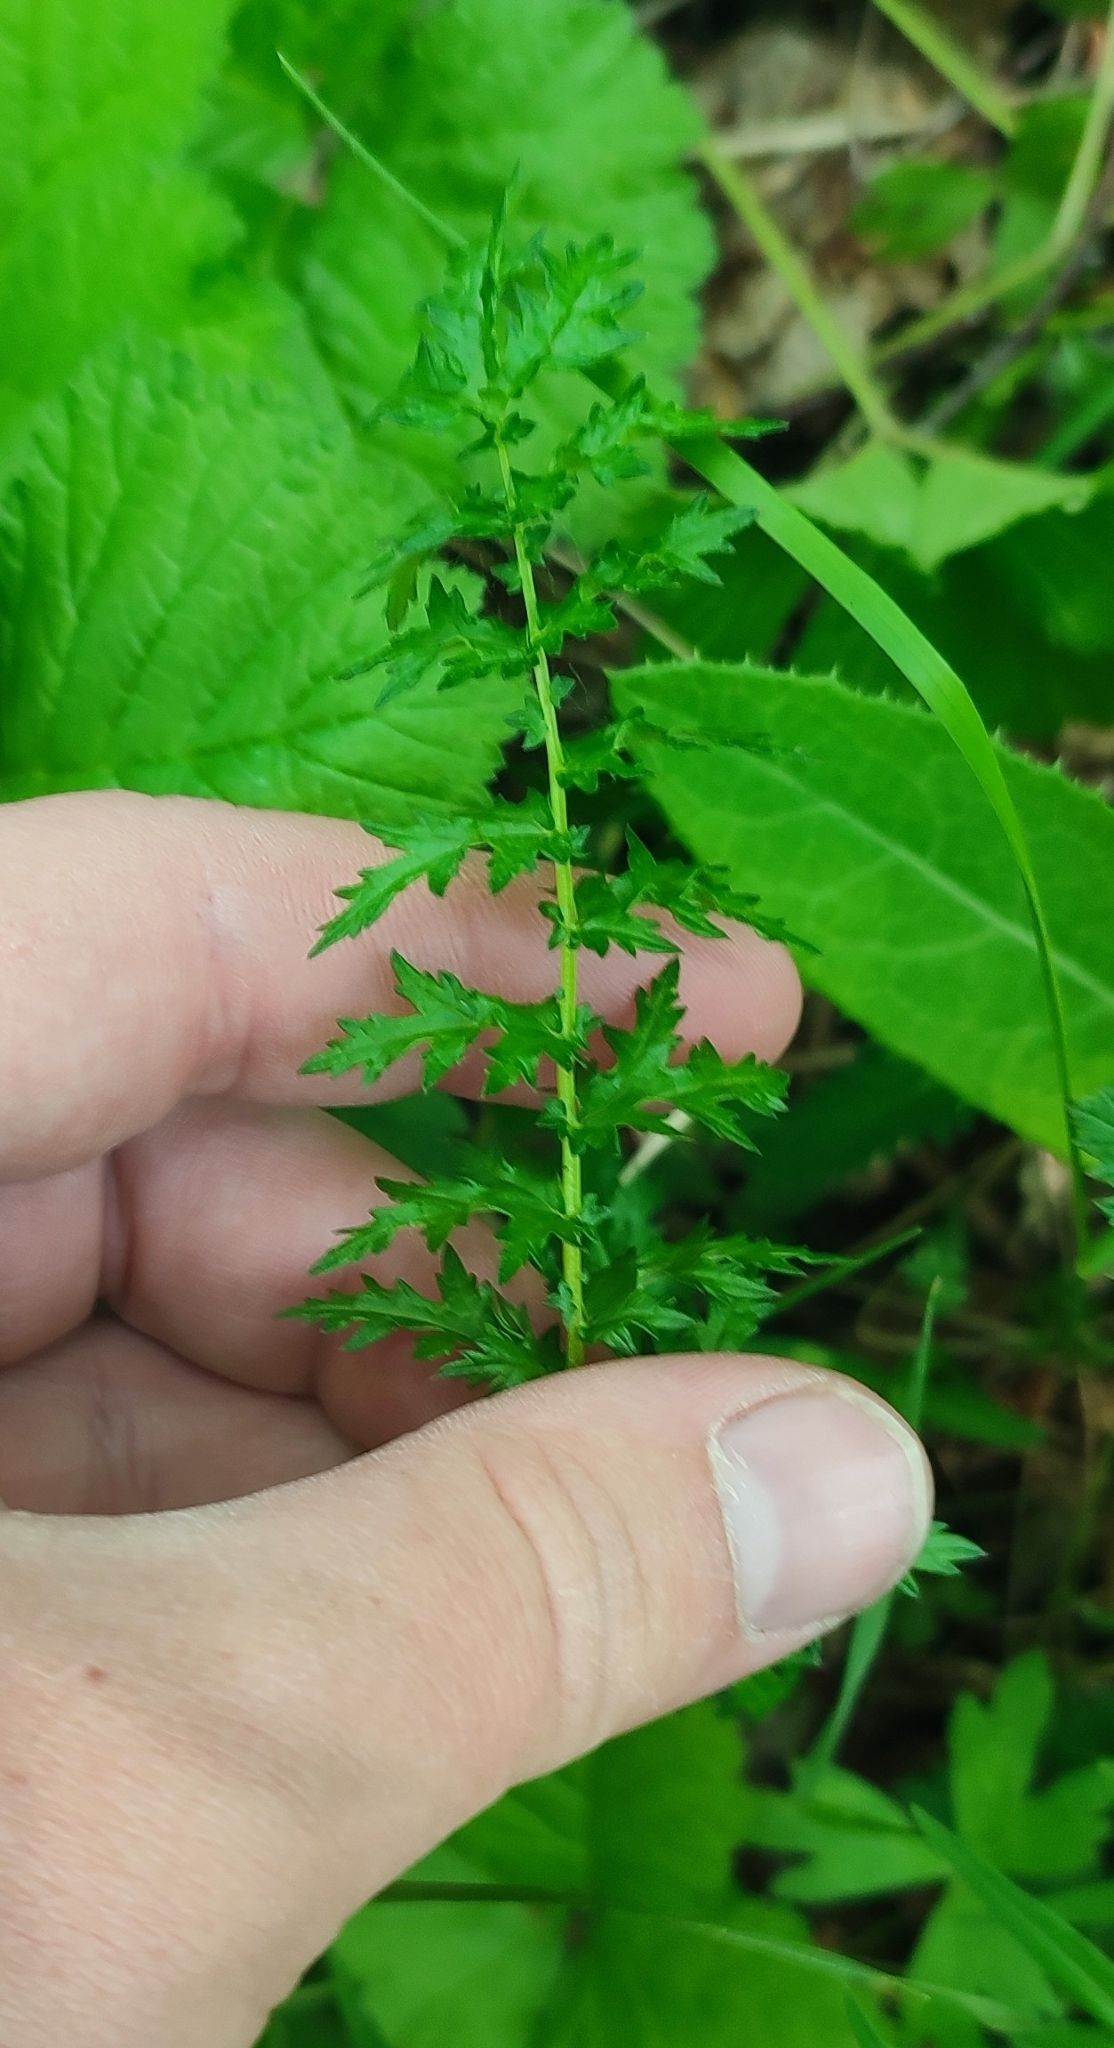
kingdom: Plantae
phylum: Tracheophyta
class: Magnoliopsida
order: Rosales
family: Rosaceae
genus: Filipendula
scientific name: Filipendula vulgaris
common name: Dropwort
